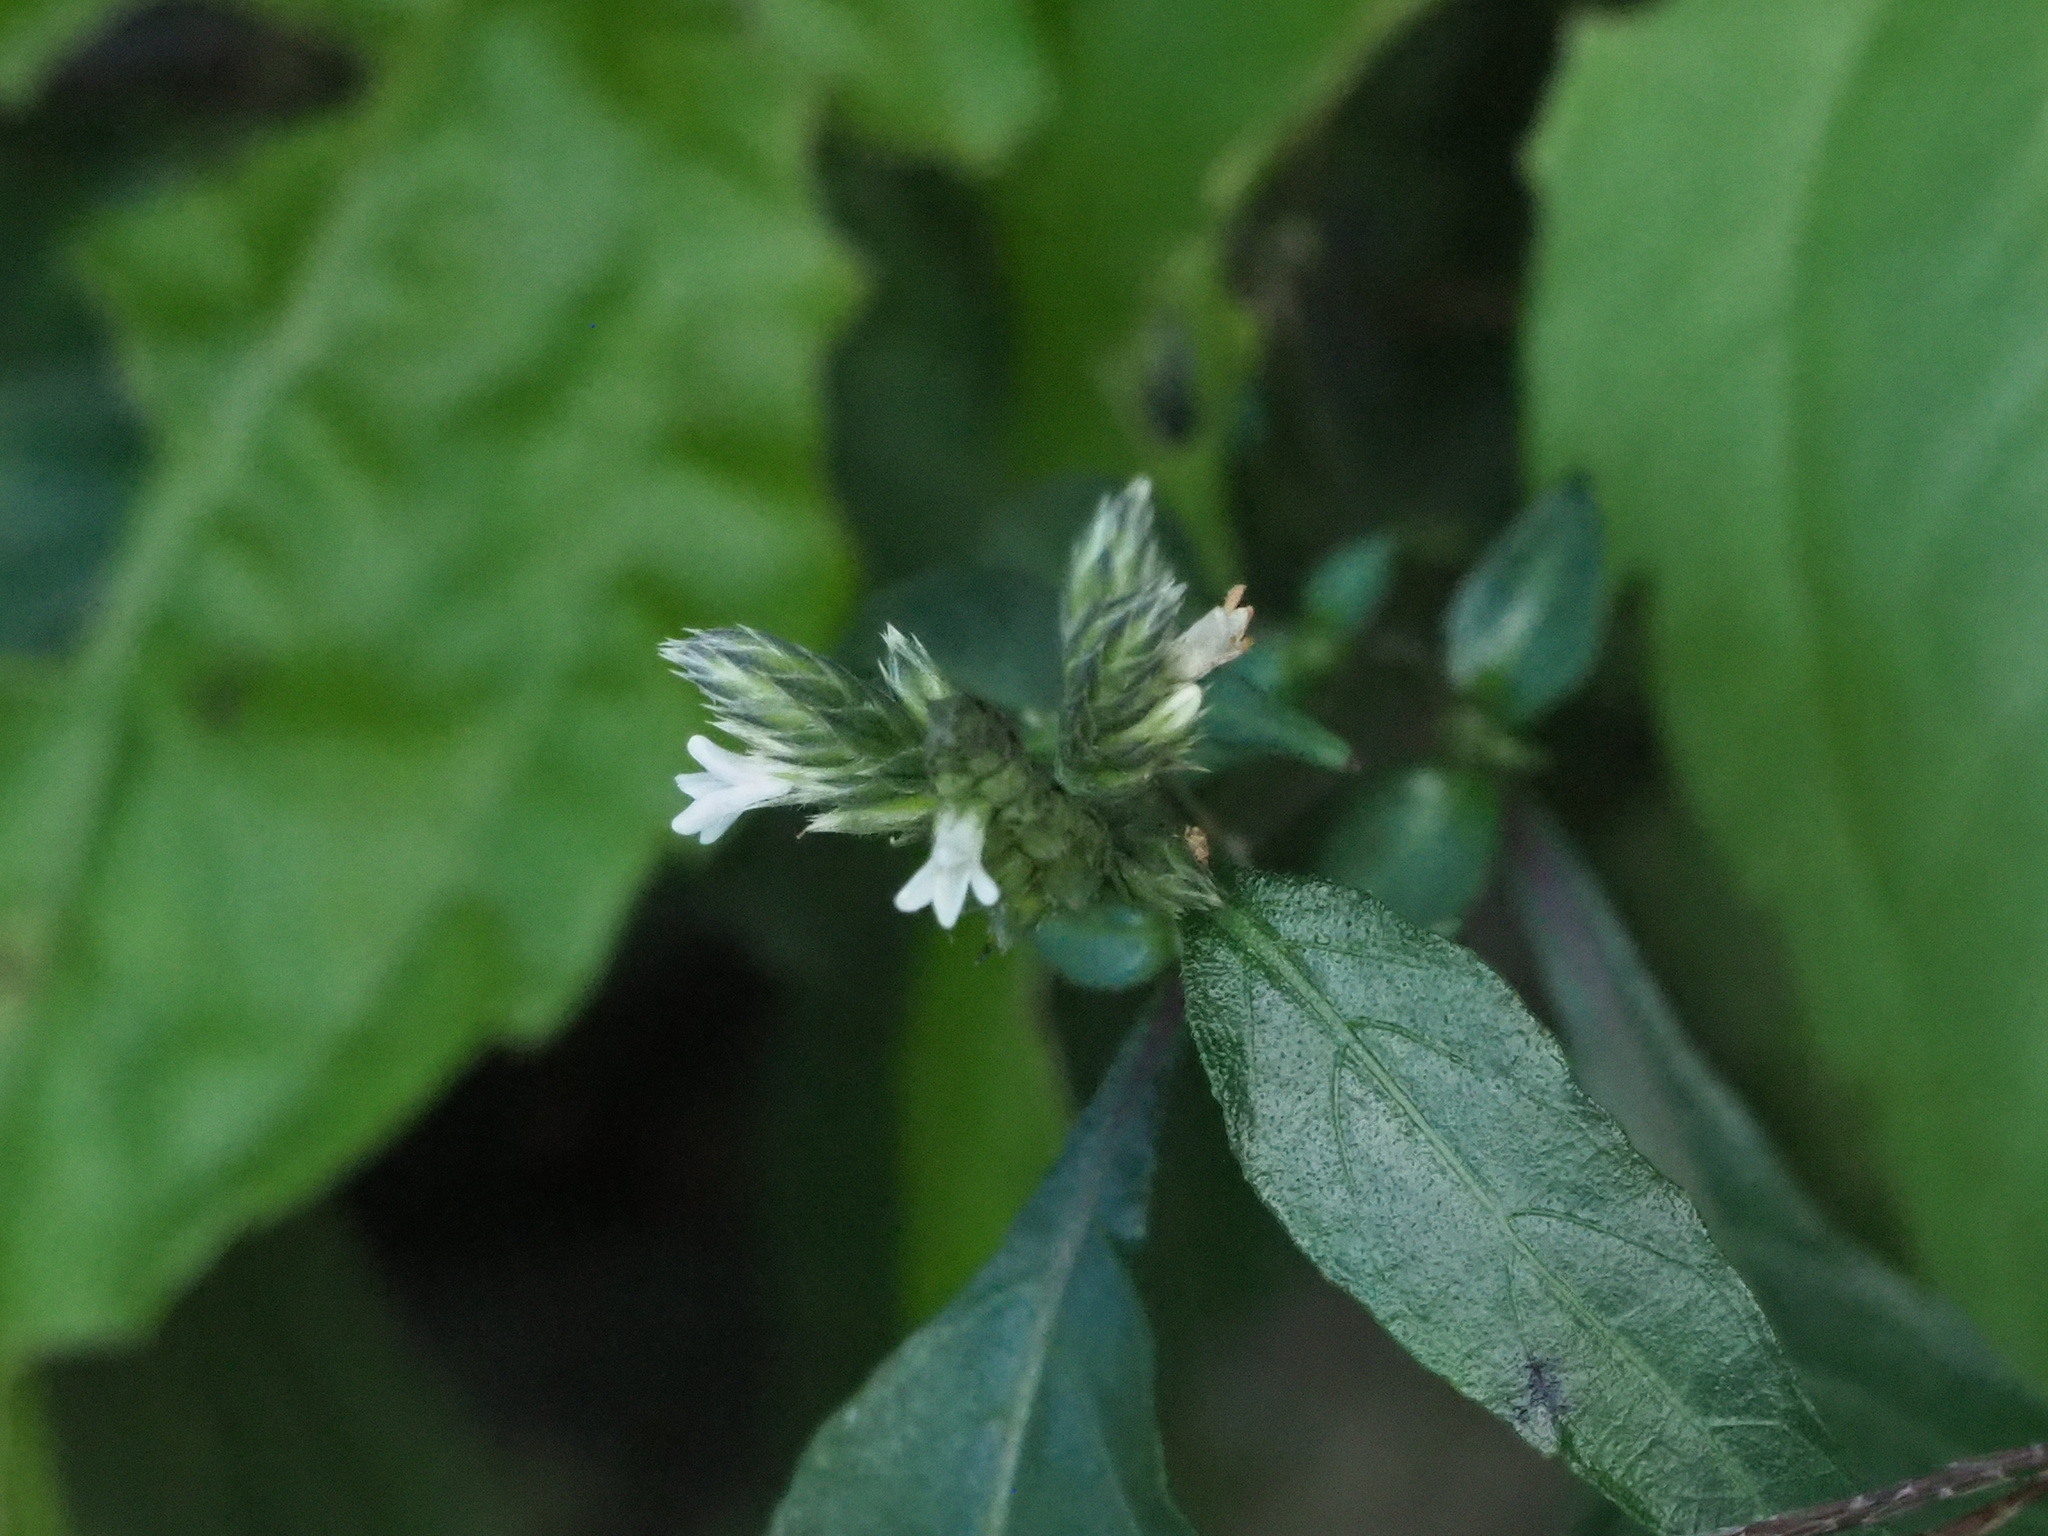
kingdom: Plantae
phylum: Tracheophyta
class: Magnoliopsida
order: Lamiales
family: Acanthaceae
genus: Lepidagathis
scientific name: Lepidagathis formosensis
